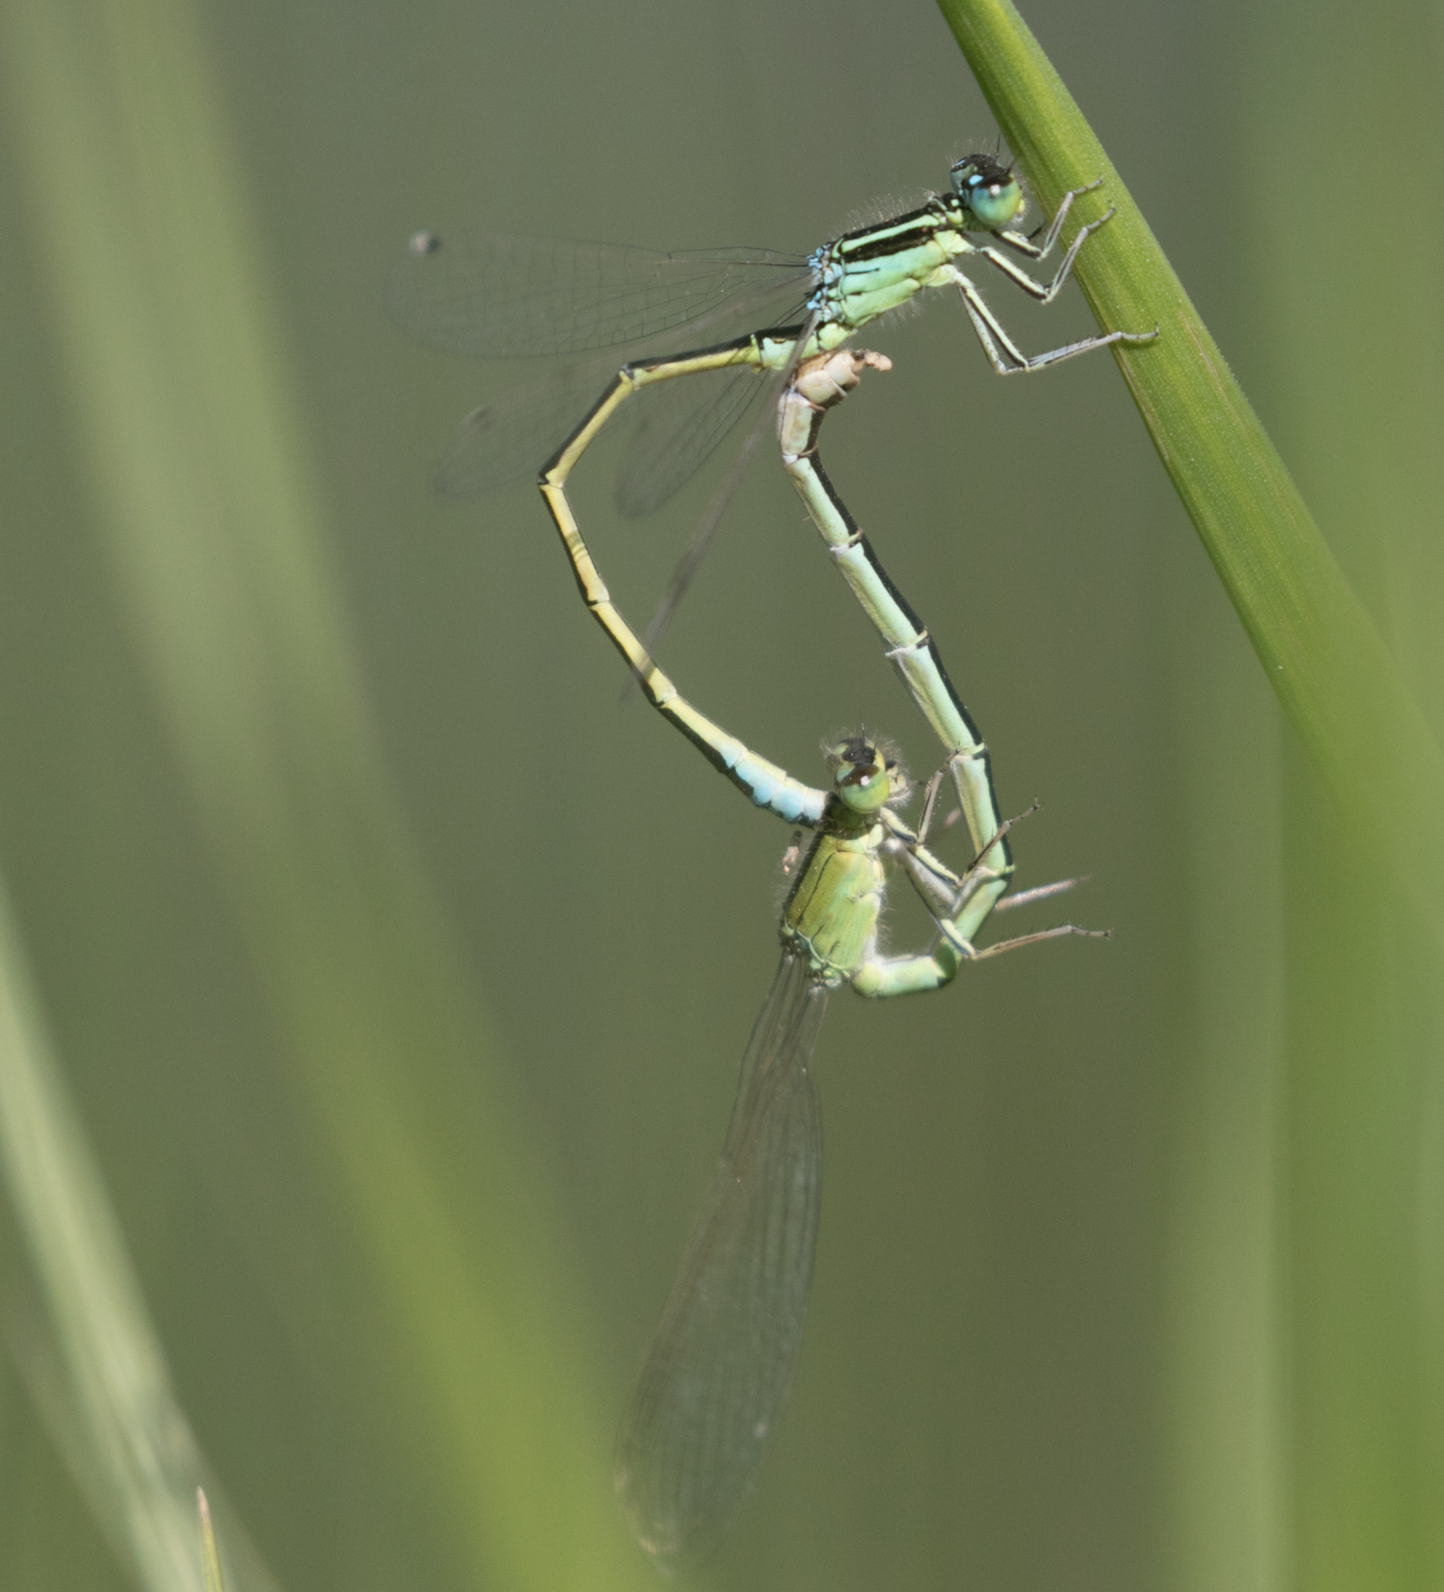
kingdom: Animalia
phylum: Arthropoda
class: Insecta
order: Odonata
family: Coenagrionidae
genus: Ischnura
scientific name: Ischnura pumilio
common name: Scarce blue-tailed damselfly
